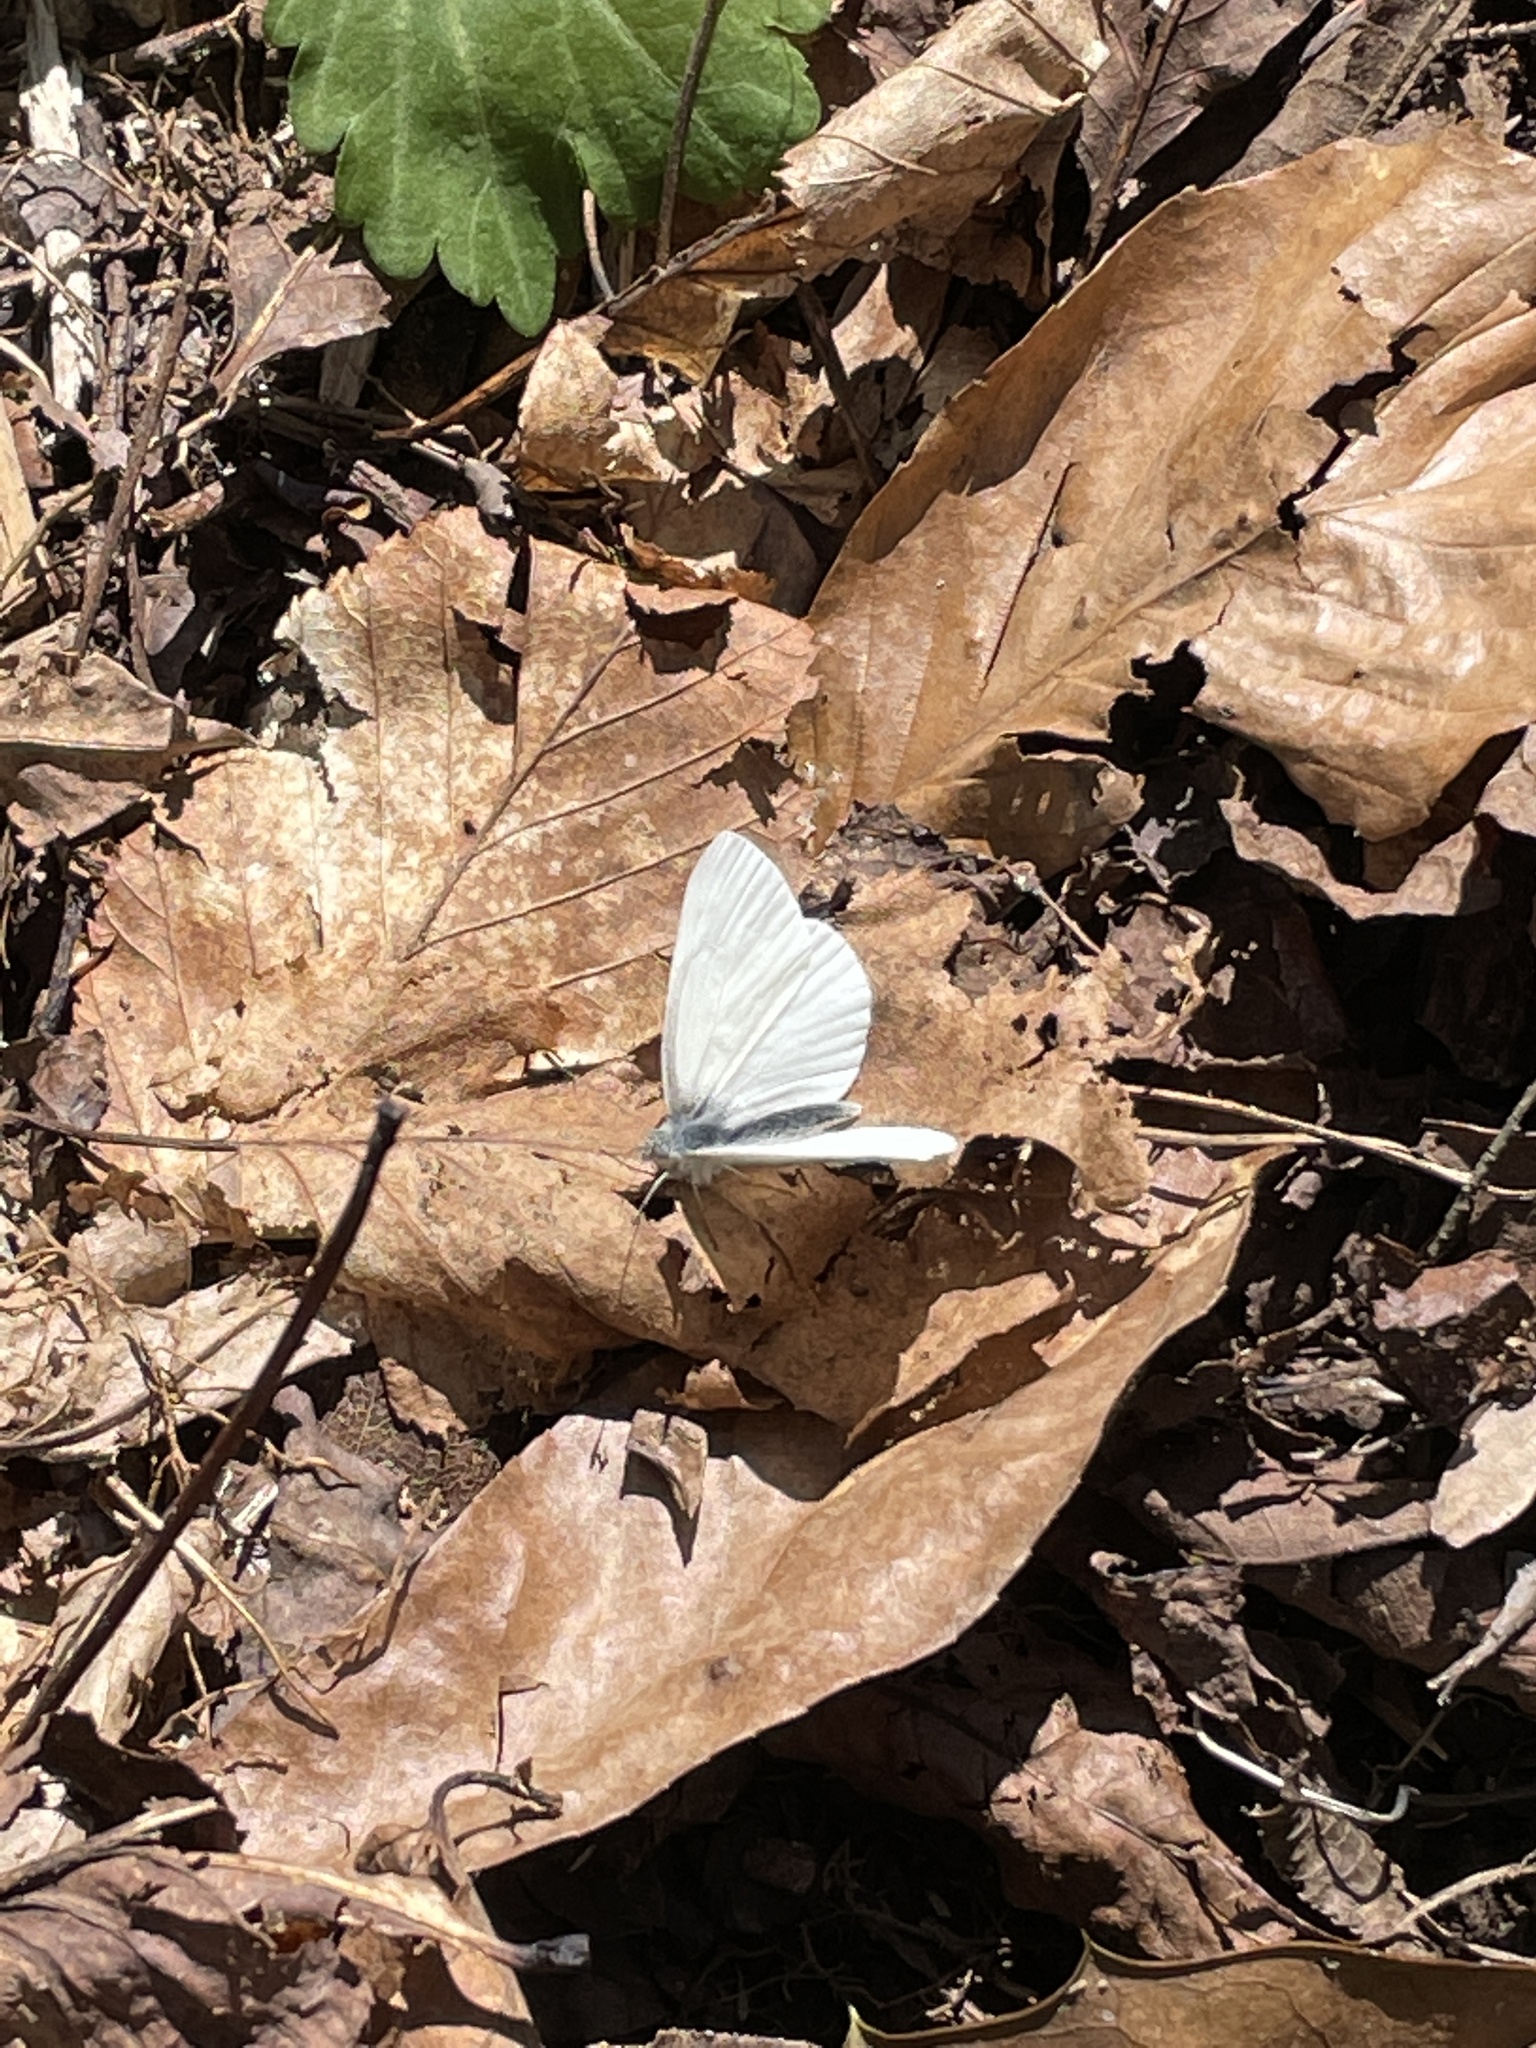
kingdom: Animalia
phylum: Arthropoda
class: Insecta
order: Lepidoptera
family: Pieridae
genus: Pieris
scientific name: Pieris virginiensis
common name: West virginia white
